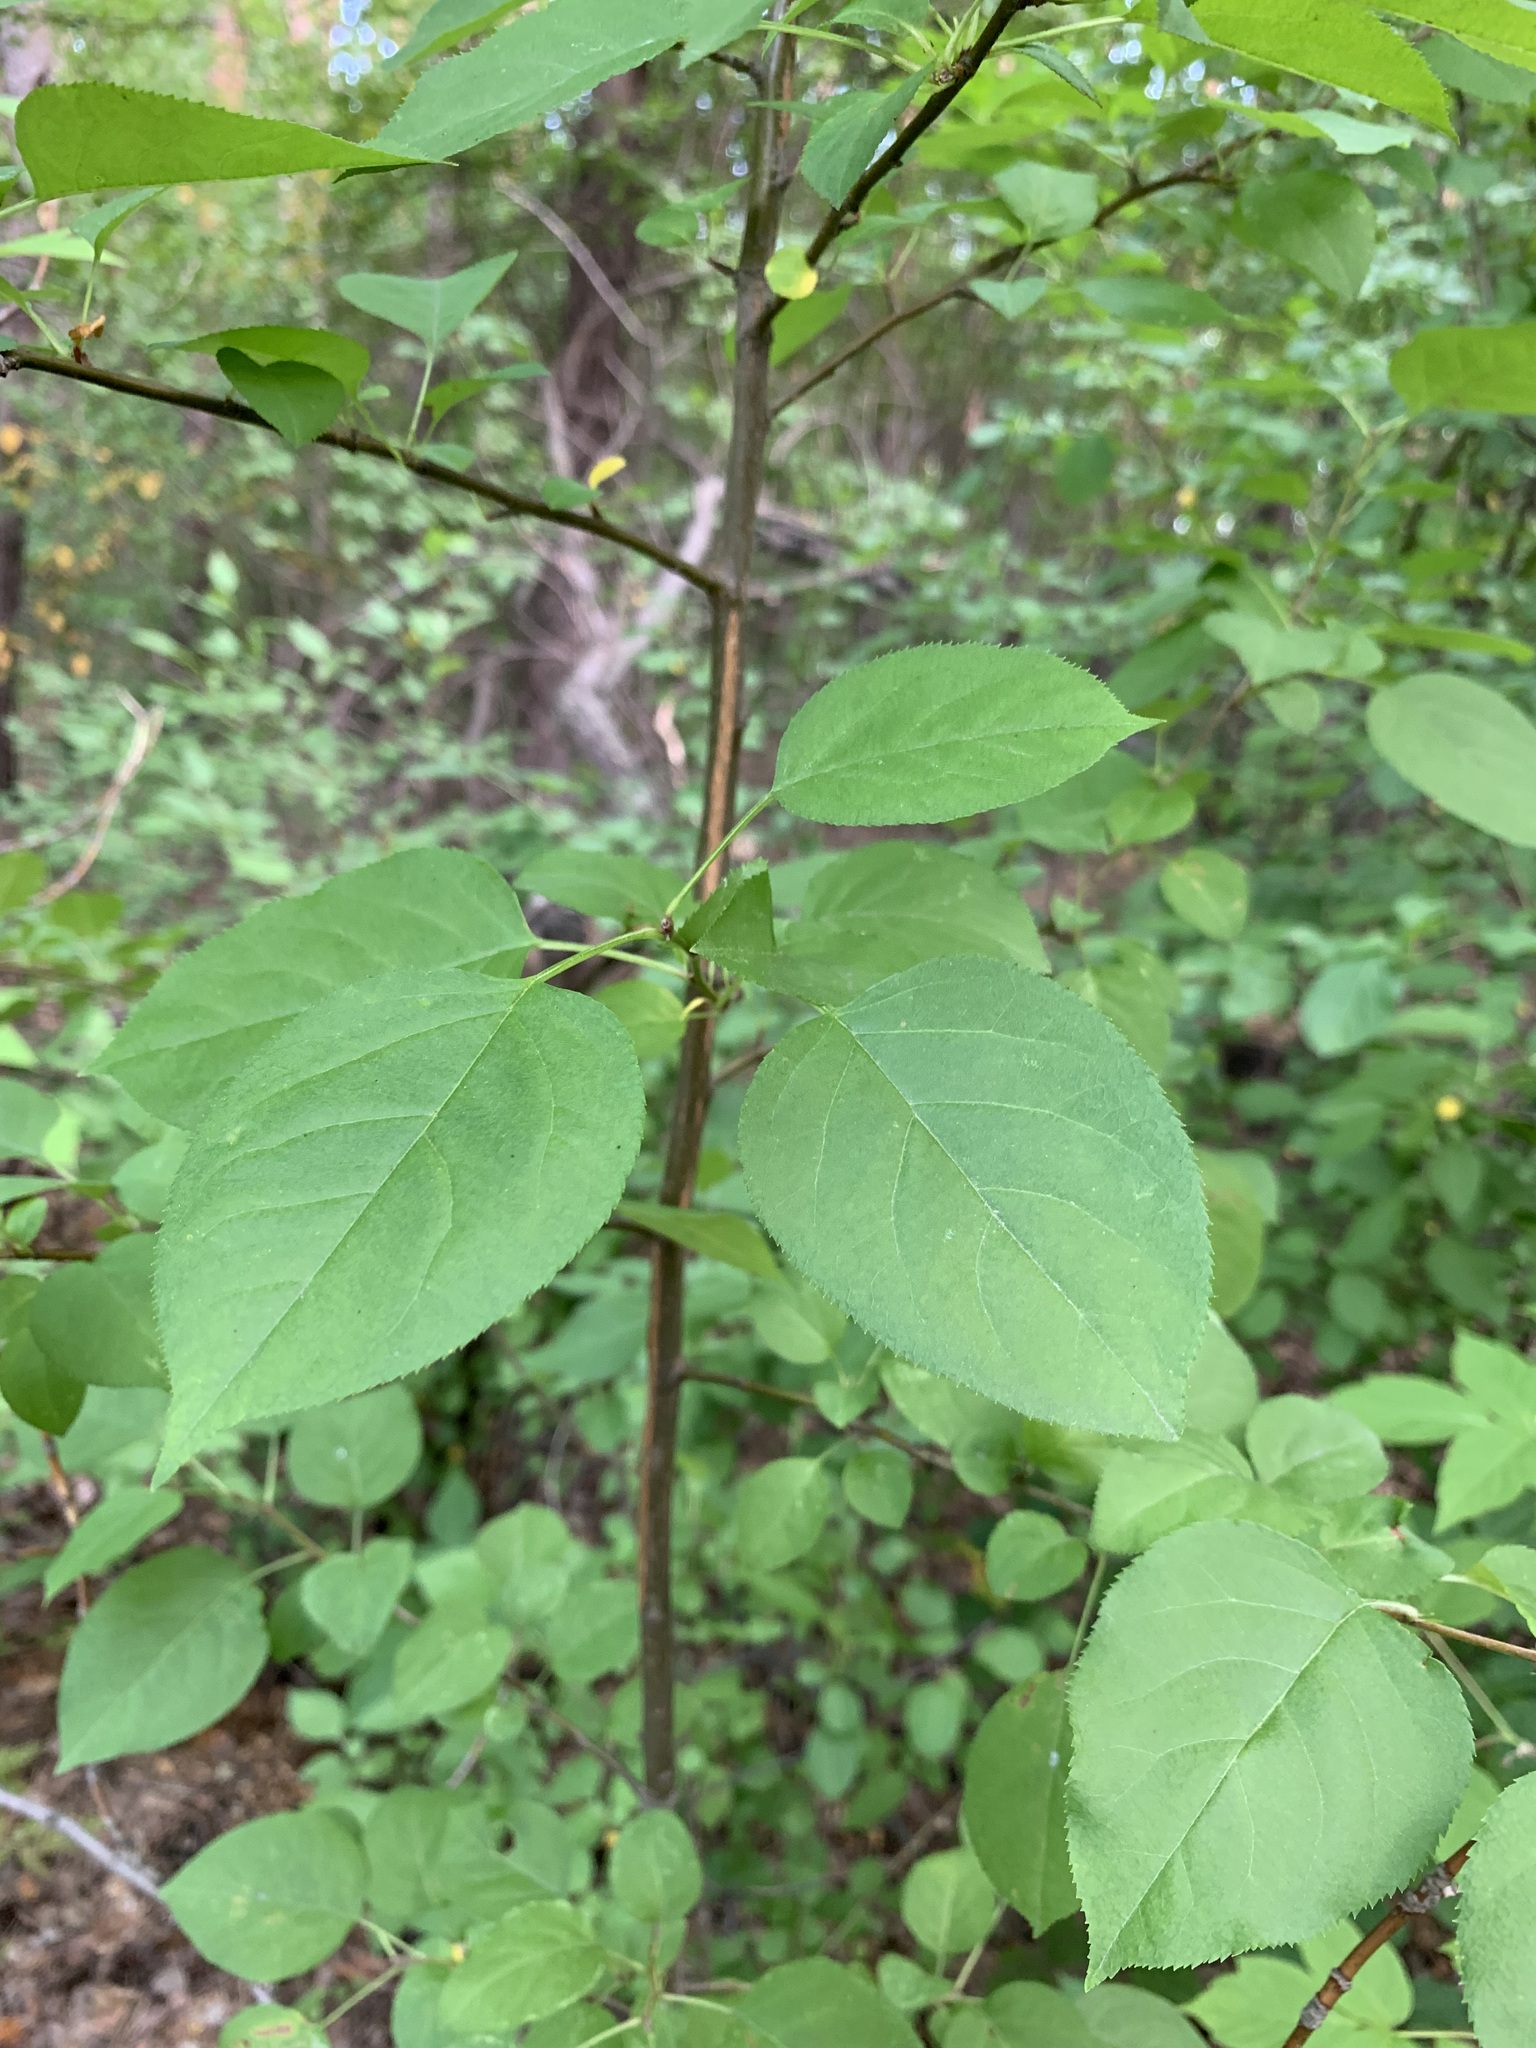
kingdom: Plantae
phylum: Tracheophyta
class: Magnoliopsida
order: Rosales
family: Rosaceae
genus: Malus
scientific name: Malus baccata
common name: Siberian crab
